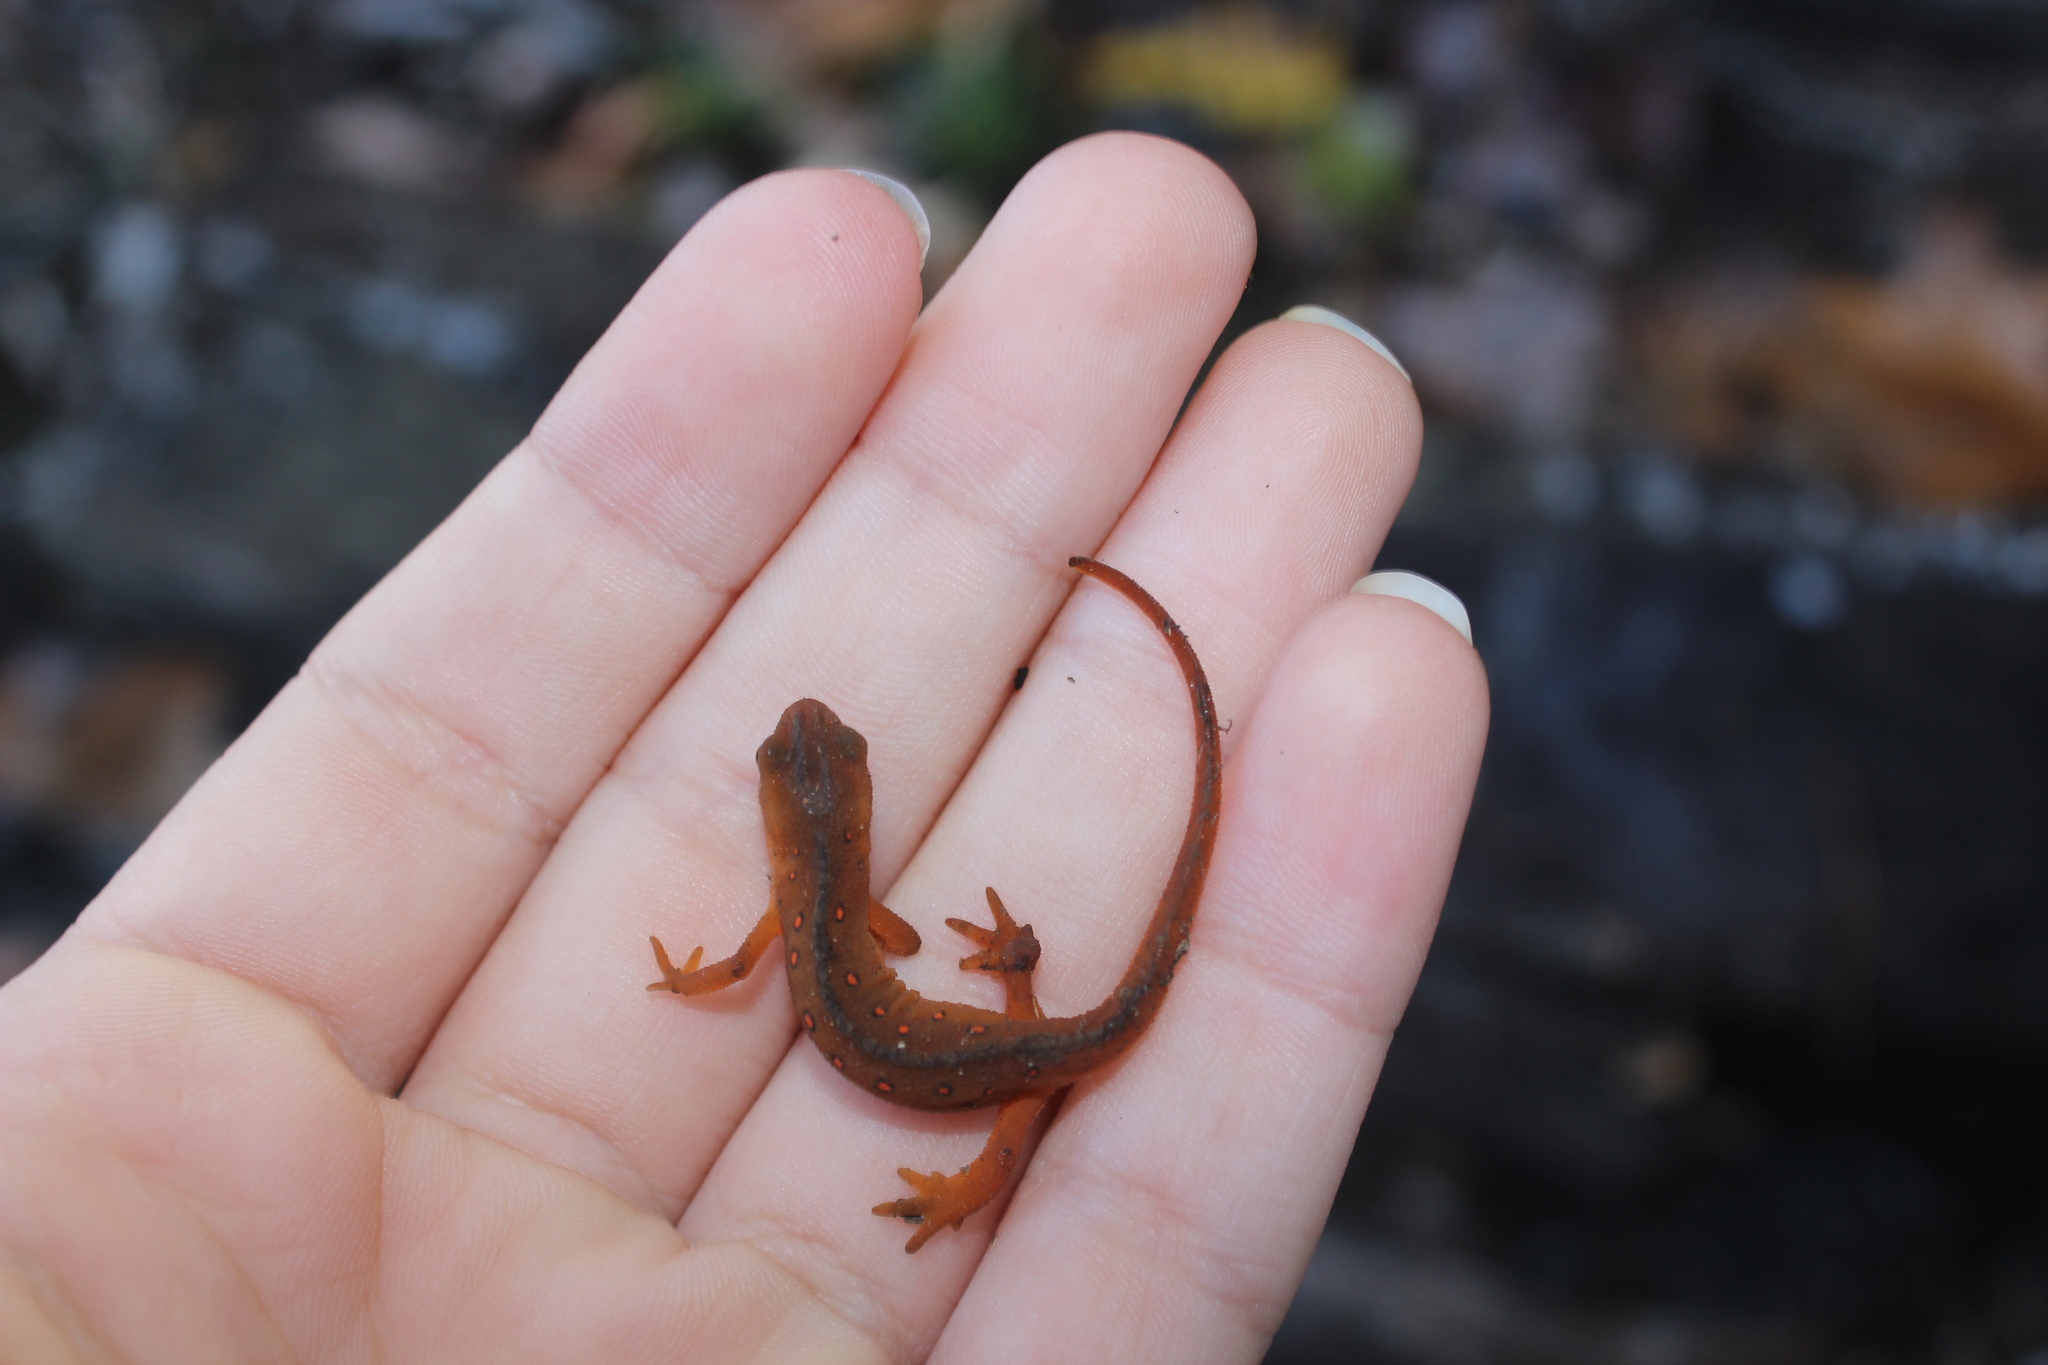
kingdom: Animalia
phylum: Chordata
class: Amphibia
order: Caudata
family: Salamandridae
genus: Notophthalmus
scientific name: Notophthalmus viridescens
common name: Eastern newt
